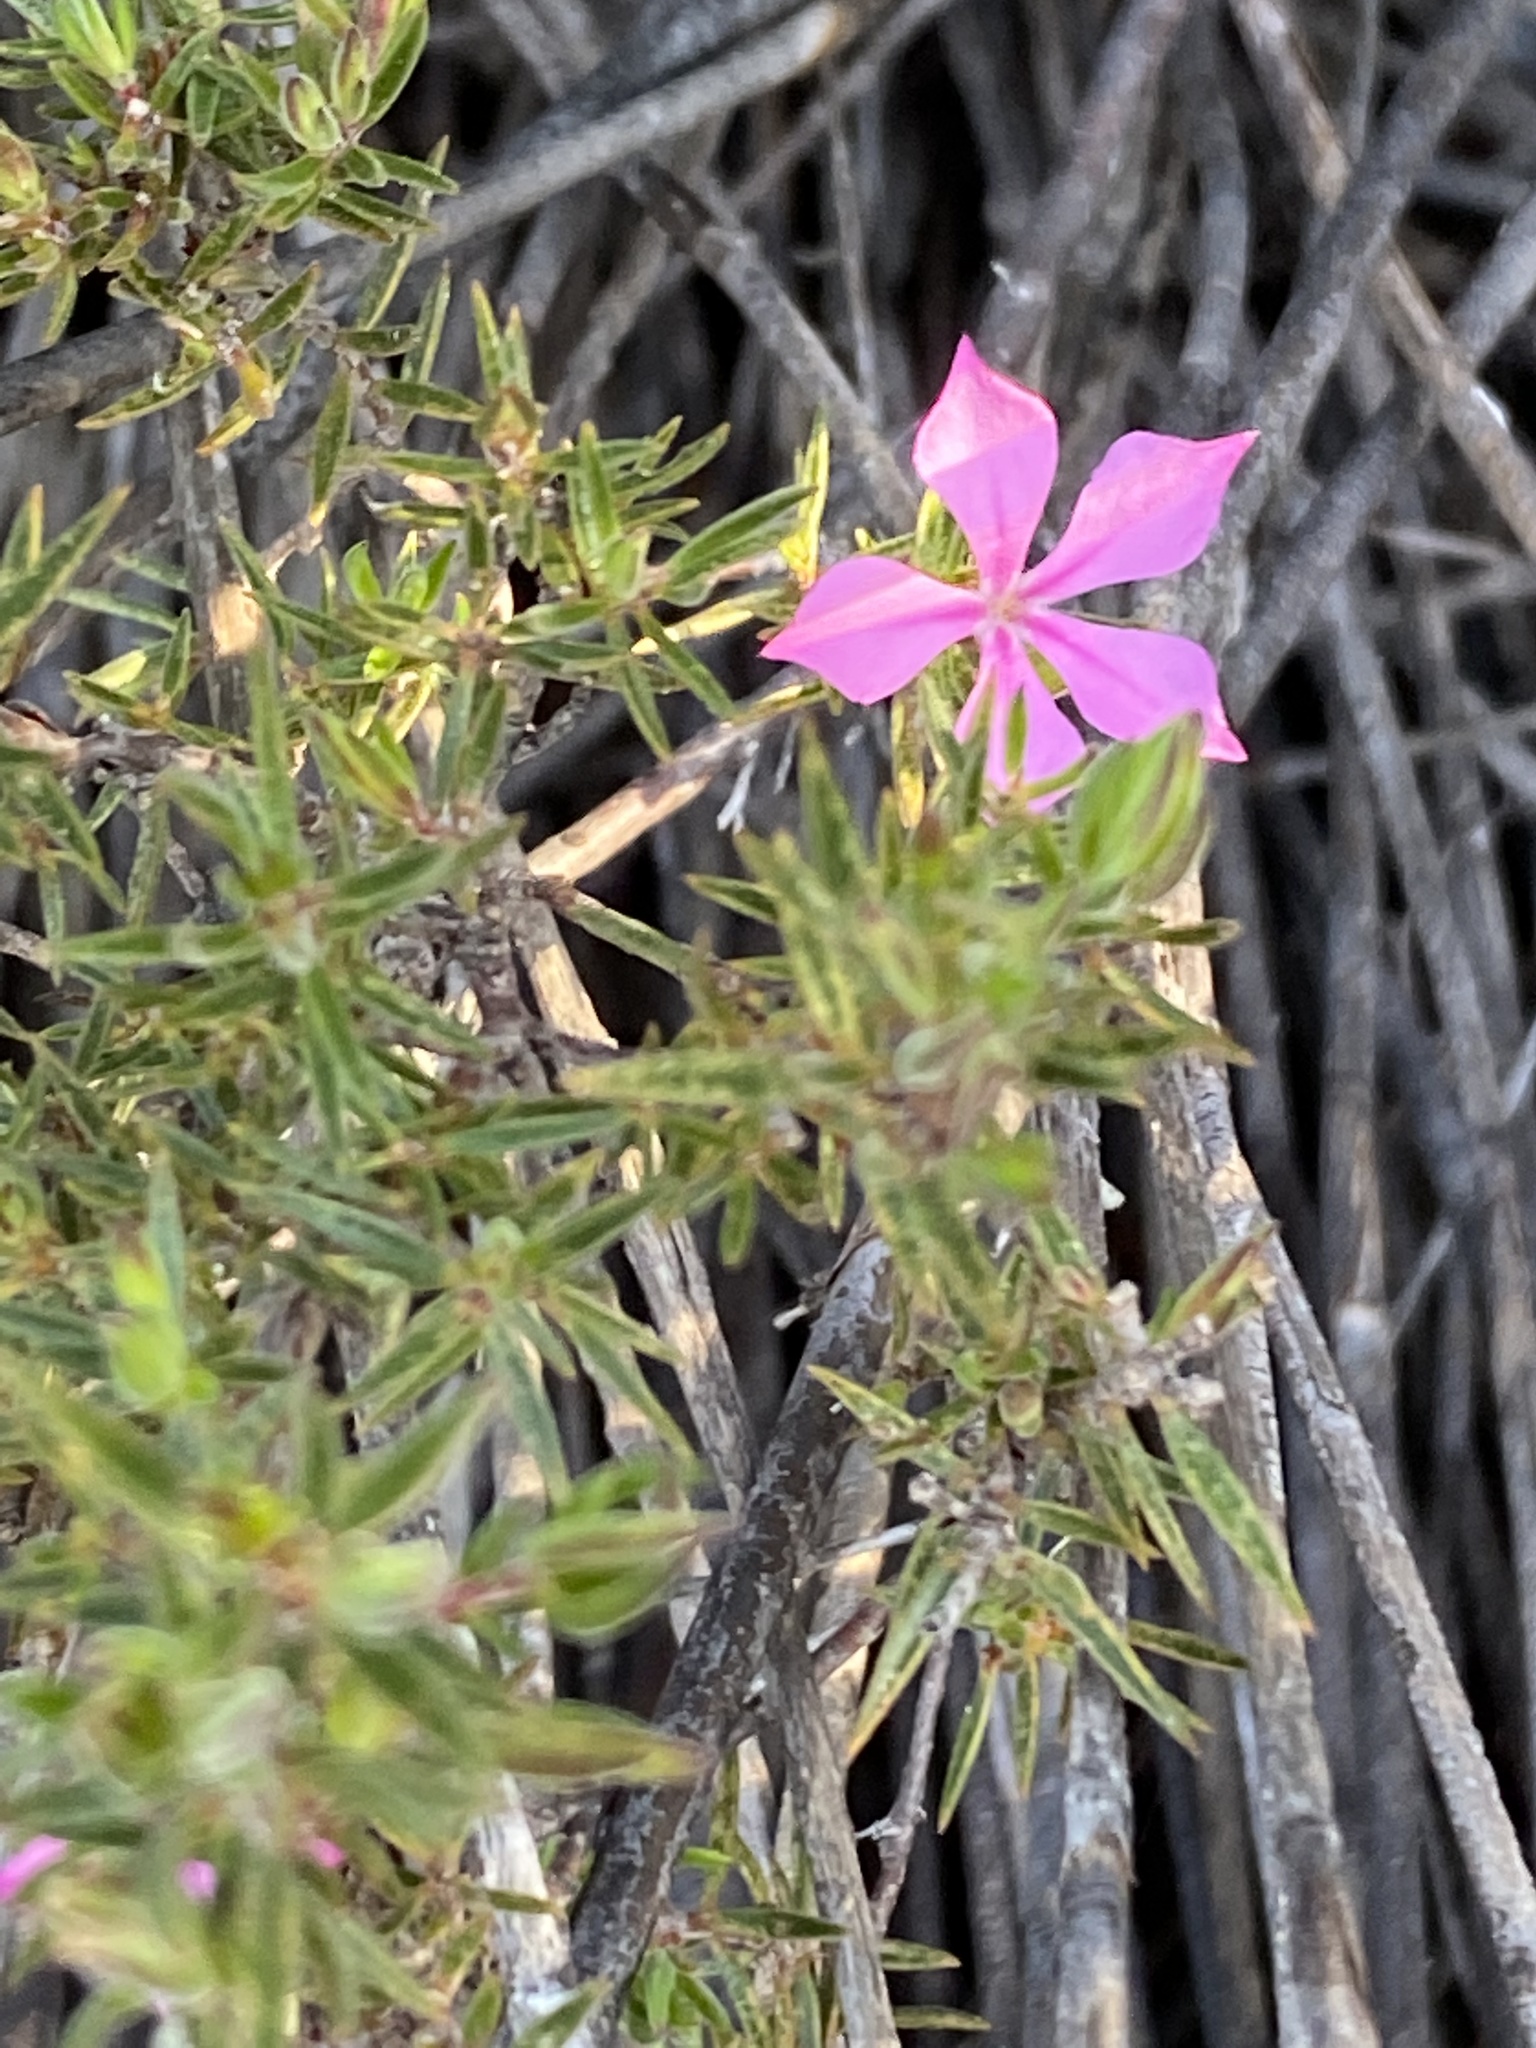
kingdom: Plantae
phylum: Tracheophyta
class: Magnoliopsida
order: Sapindales
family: Rutaceae
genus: Acmadenia
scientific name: Acmadenia obtusata
